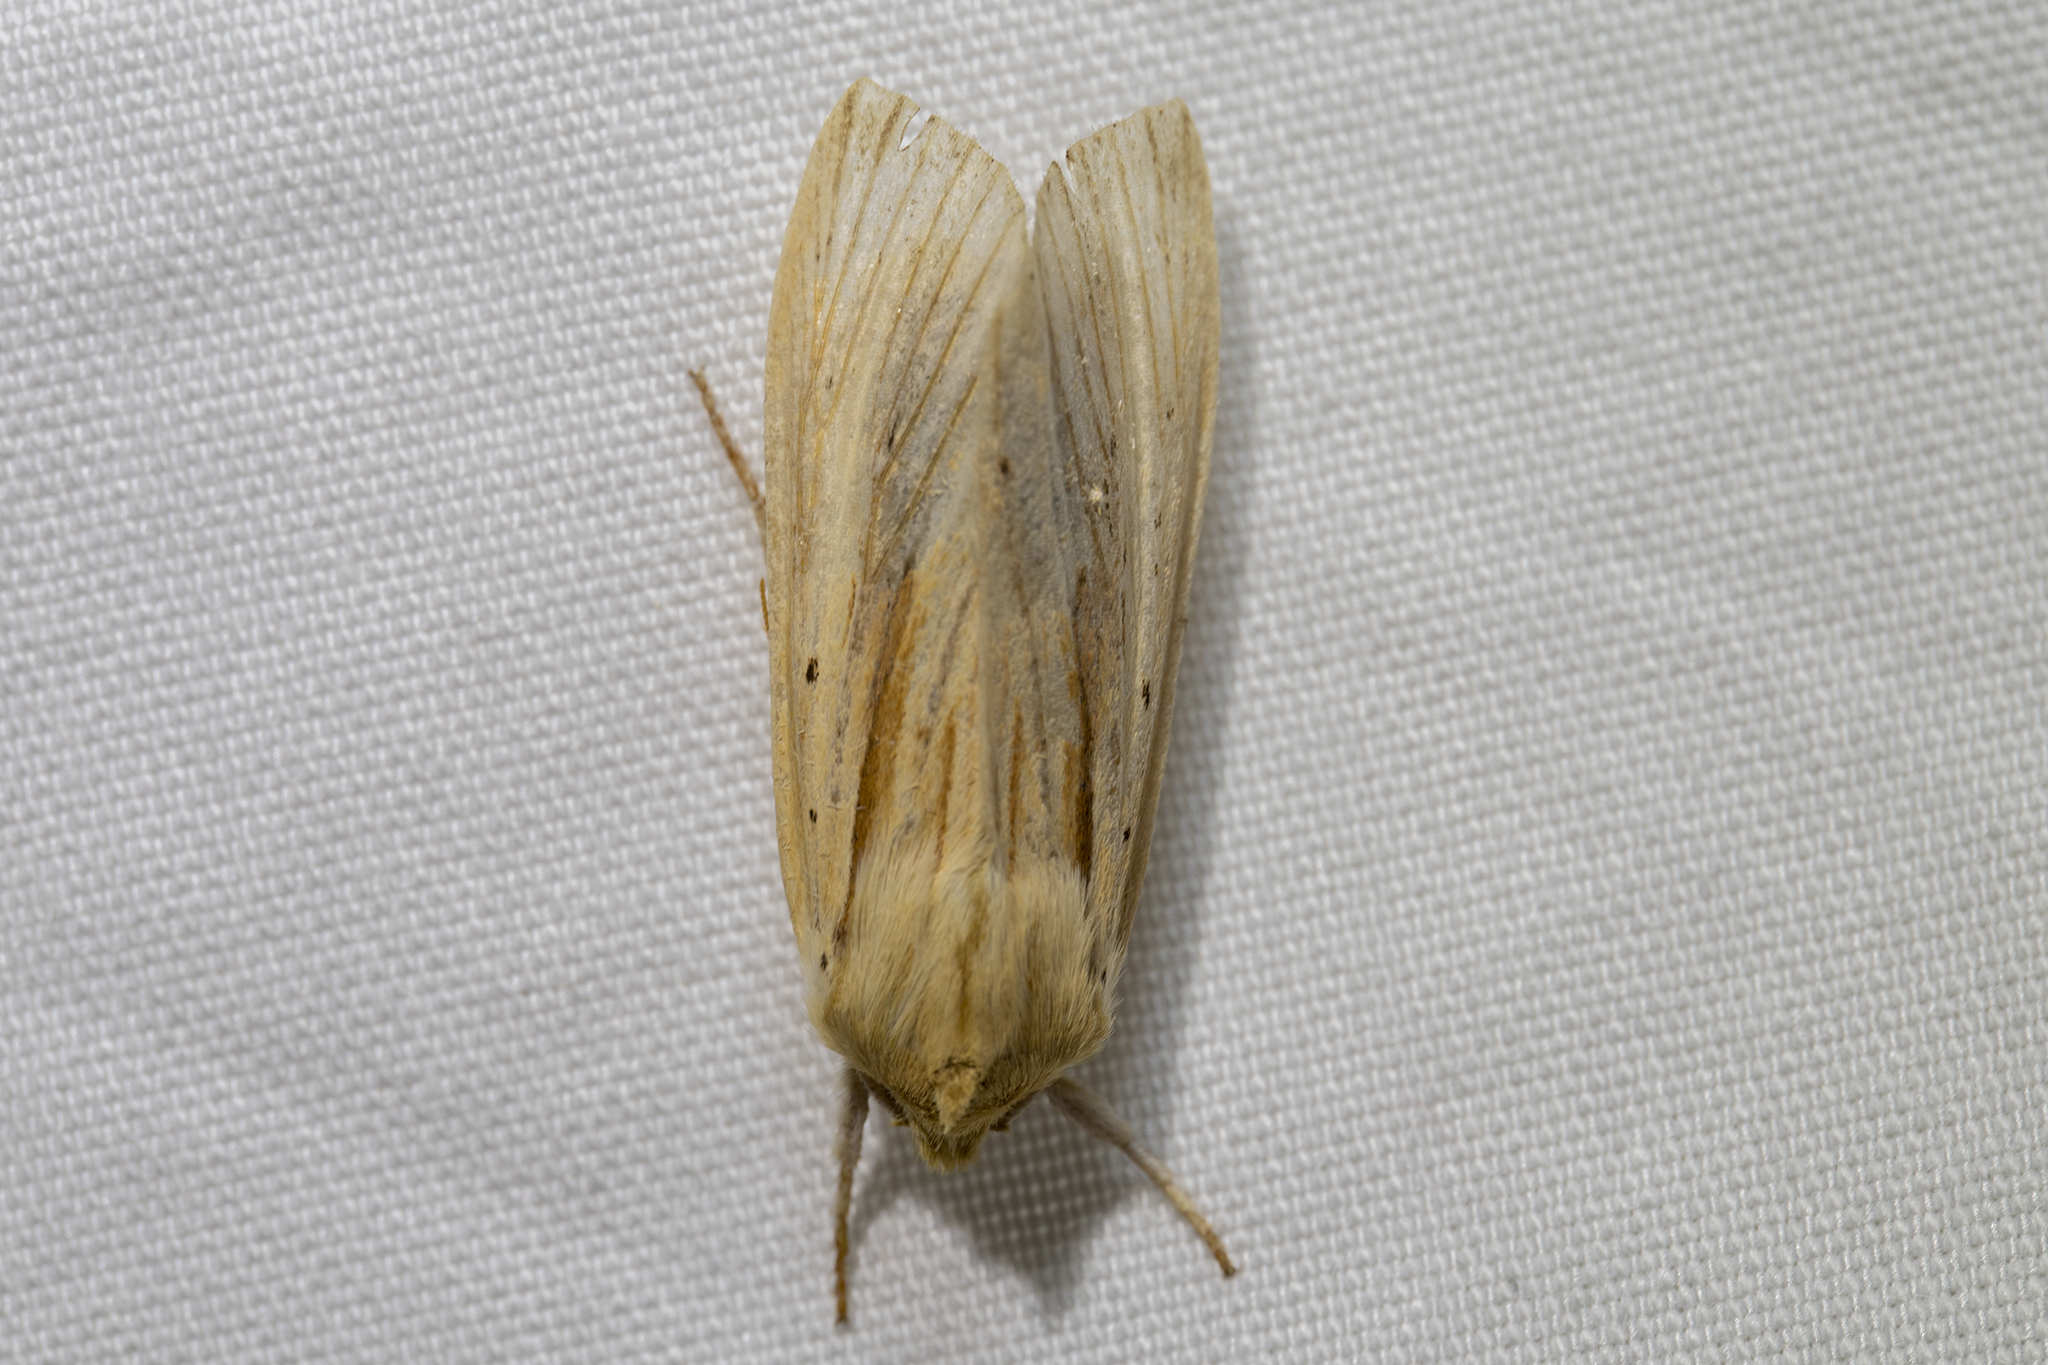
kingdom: Animalia
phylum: Arthropoda
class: Insecta
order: Lepidoptera
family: Noctuidae
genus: Ichneutica
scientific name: Ichneutica semivittata
